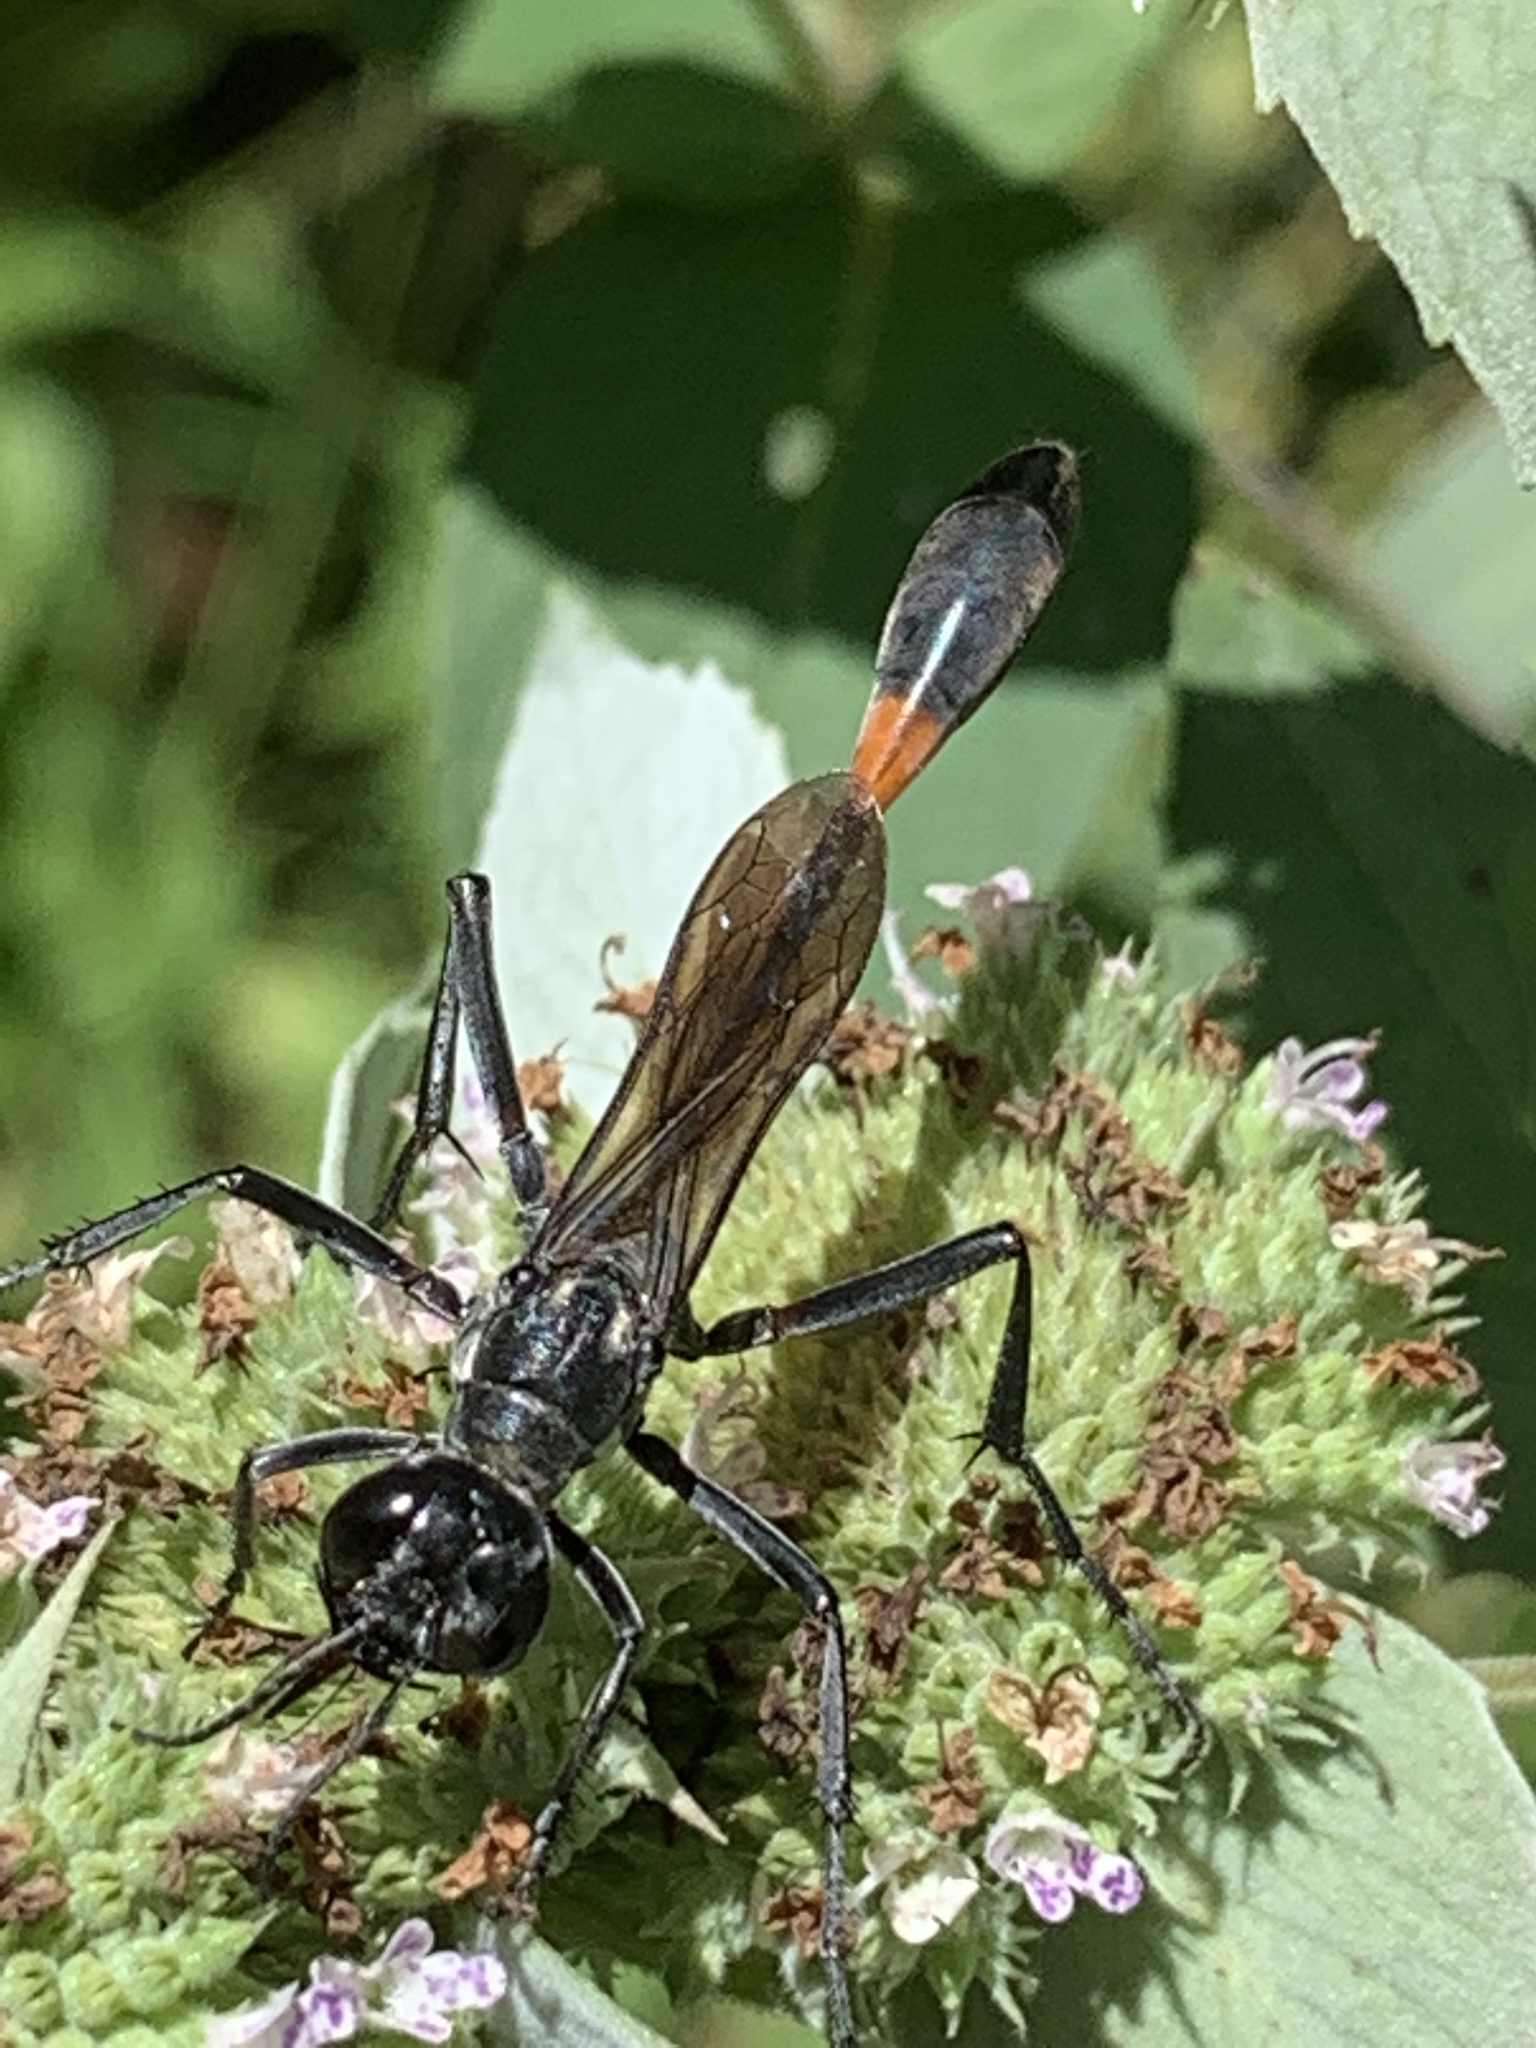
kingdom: Animalia
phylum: Arthropoda
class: Insecta
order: Hymenoptera
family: Sphecidae
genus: Ammophila
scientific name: Ammophila procera
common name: Common thread-waisted wasp
